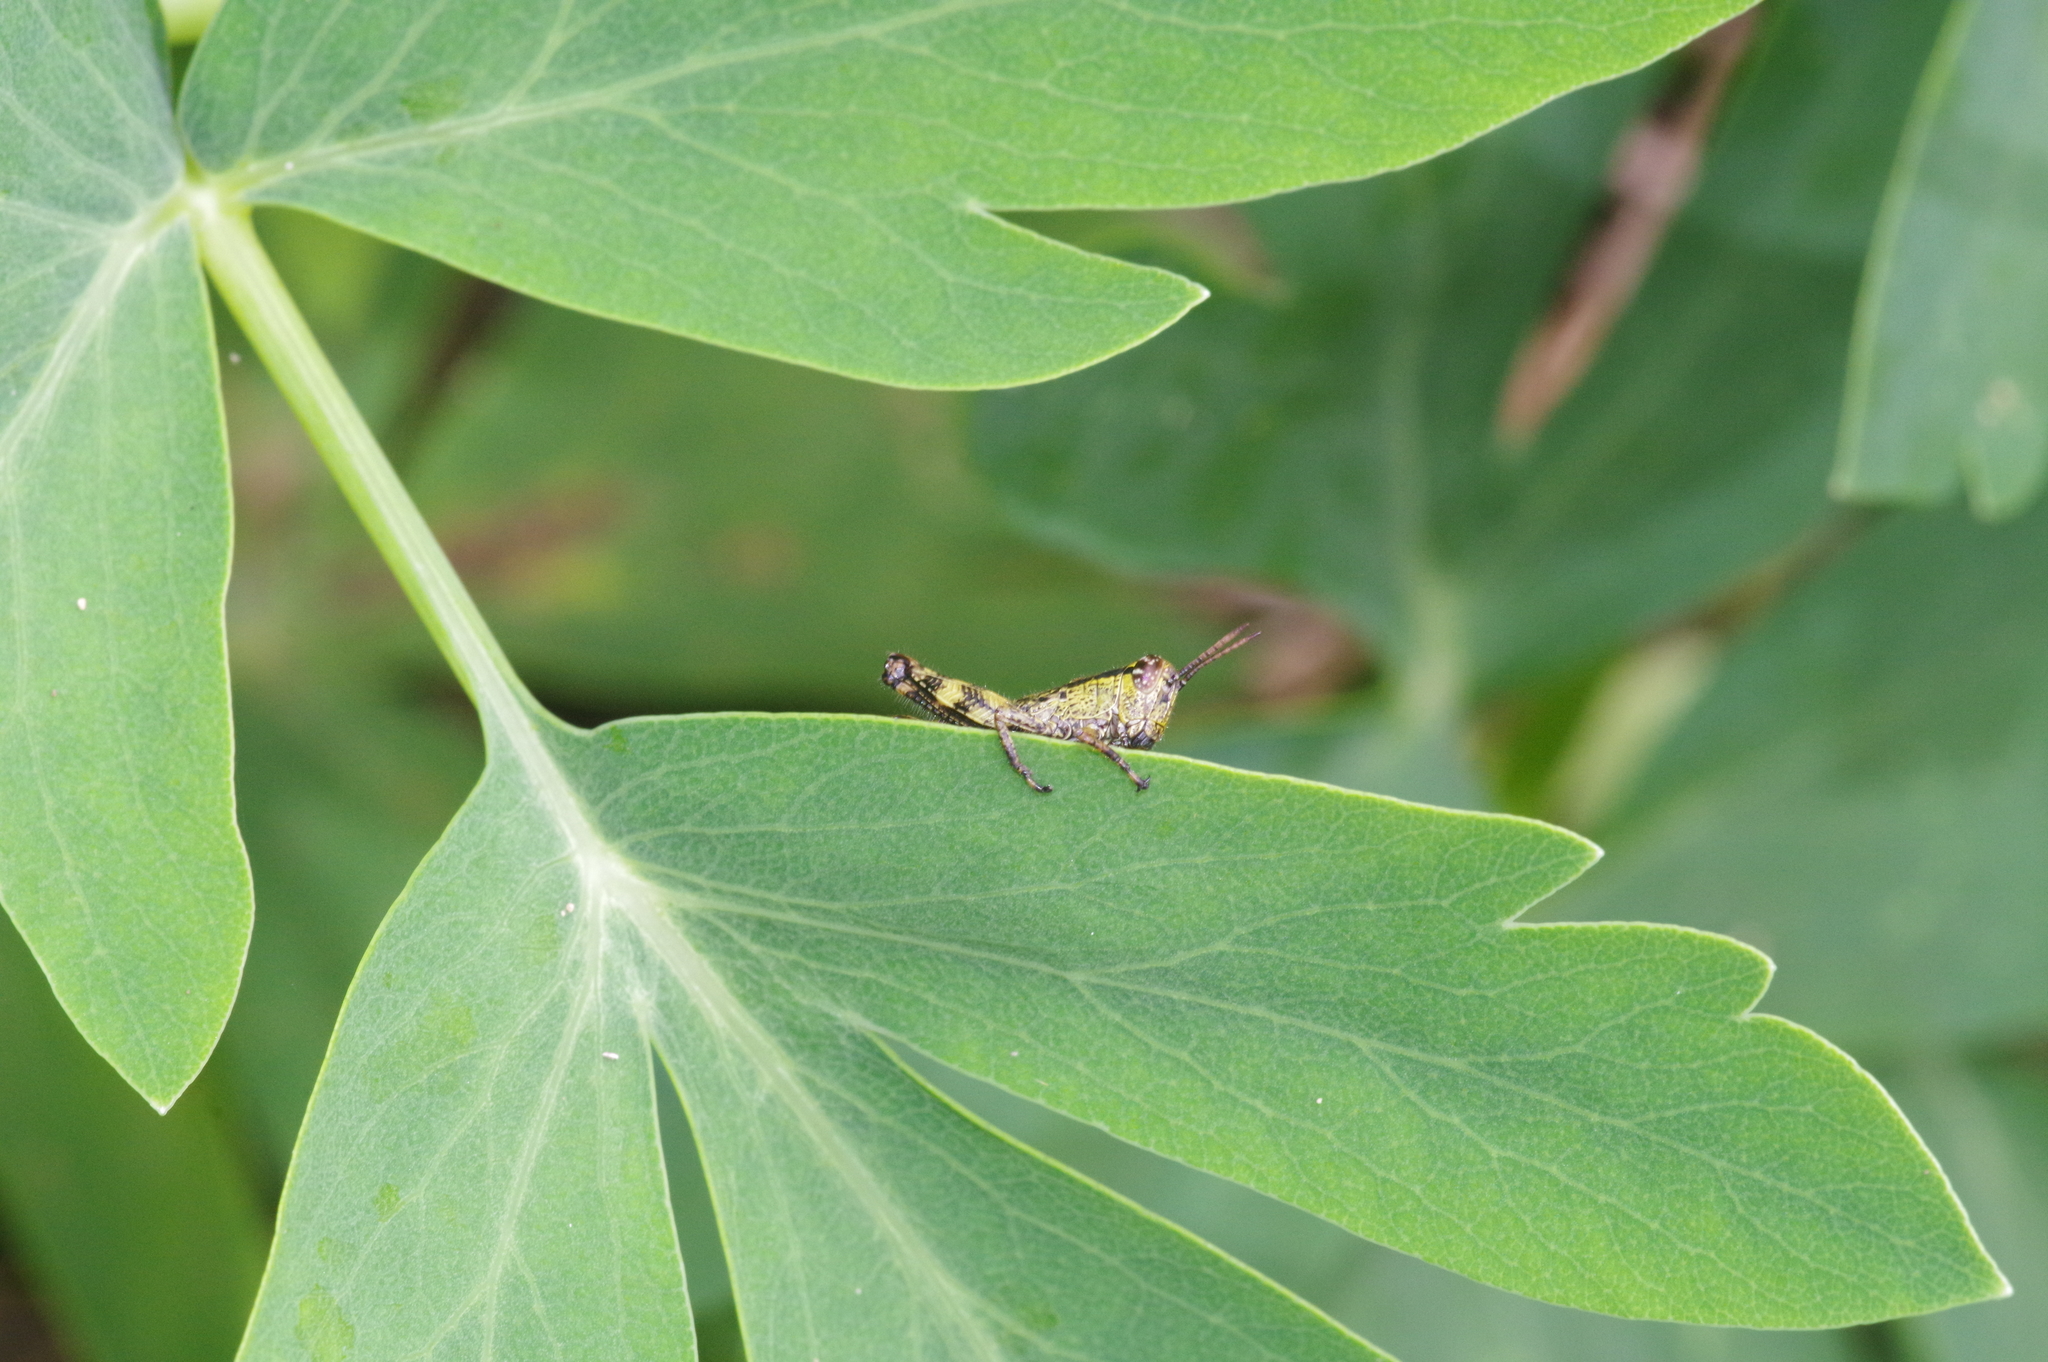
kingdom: Animalia
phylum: Arthropoda
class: Insecta
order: Orthoptera
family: Acrididae
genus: Fruhstorferiola
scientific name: Fruhstorferiola okinawaensis
